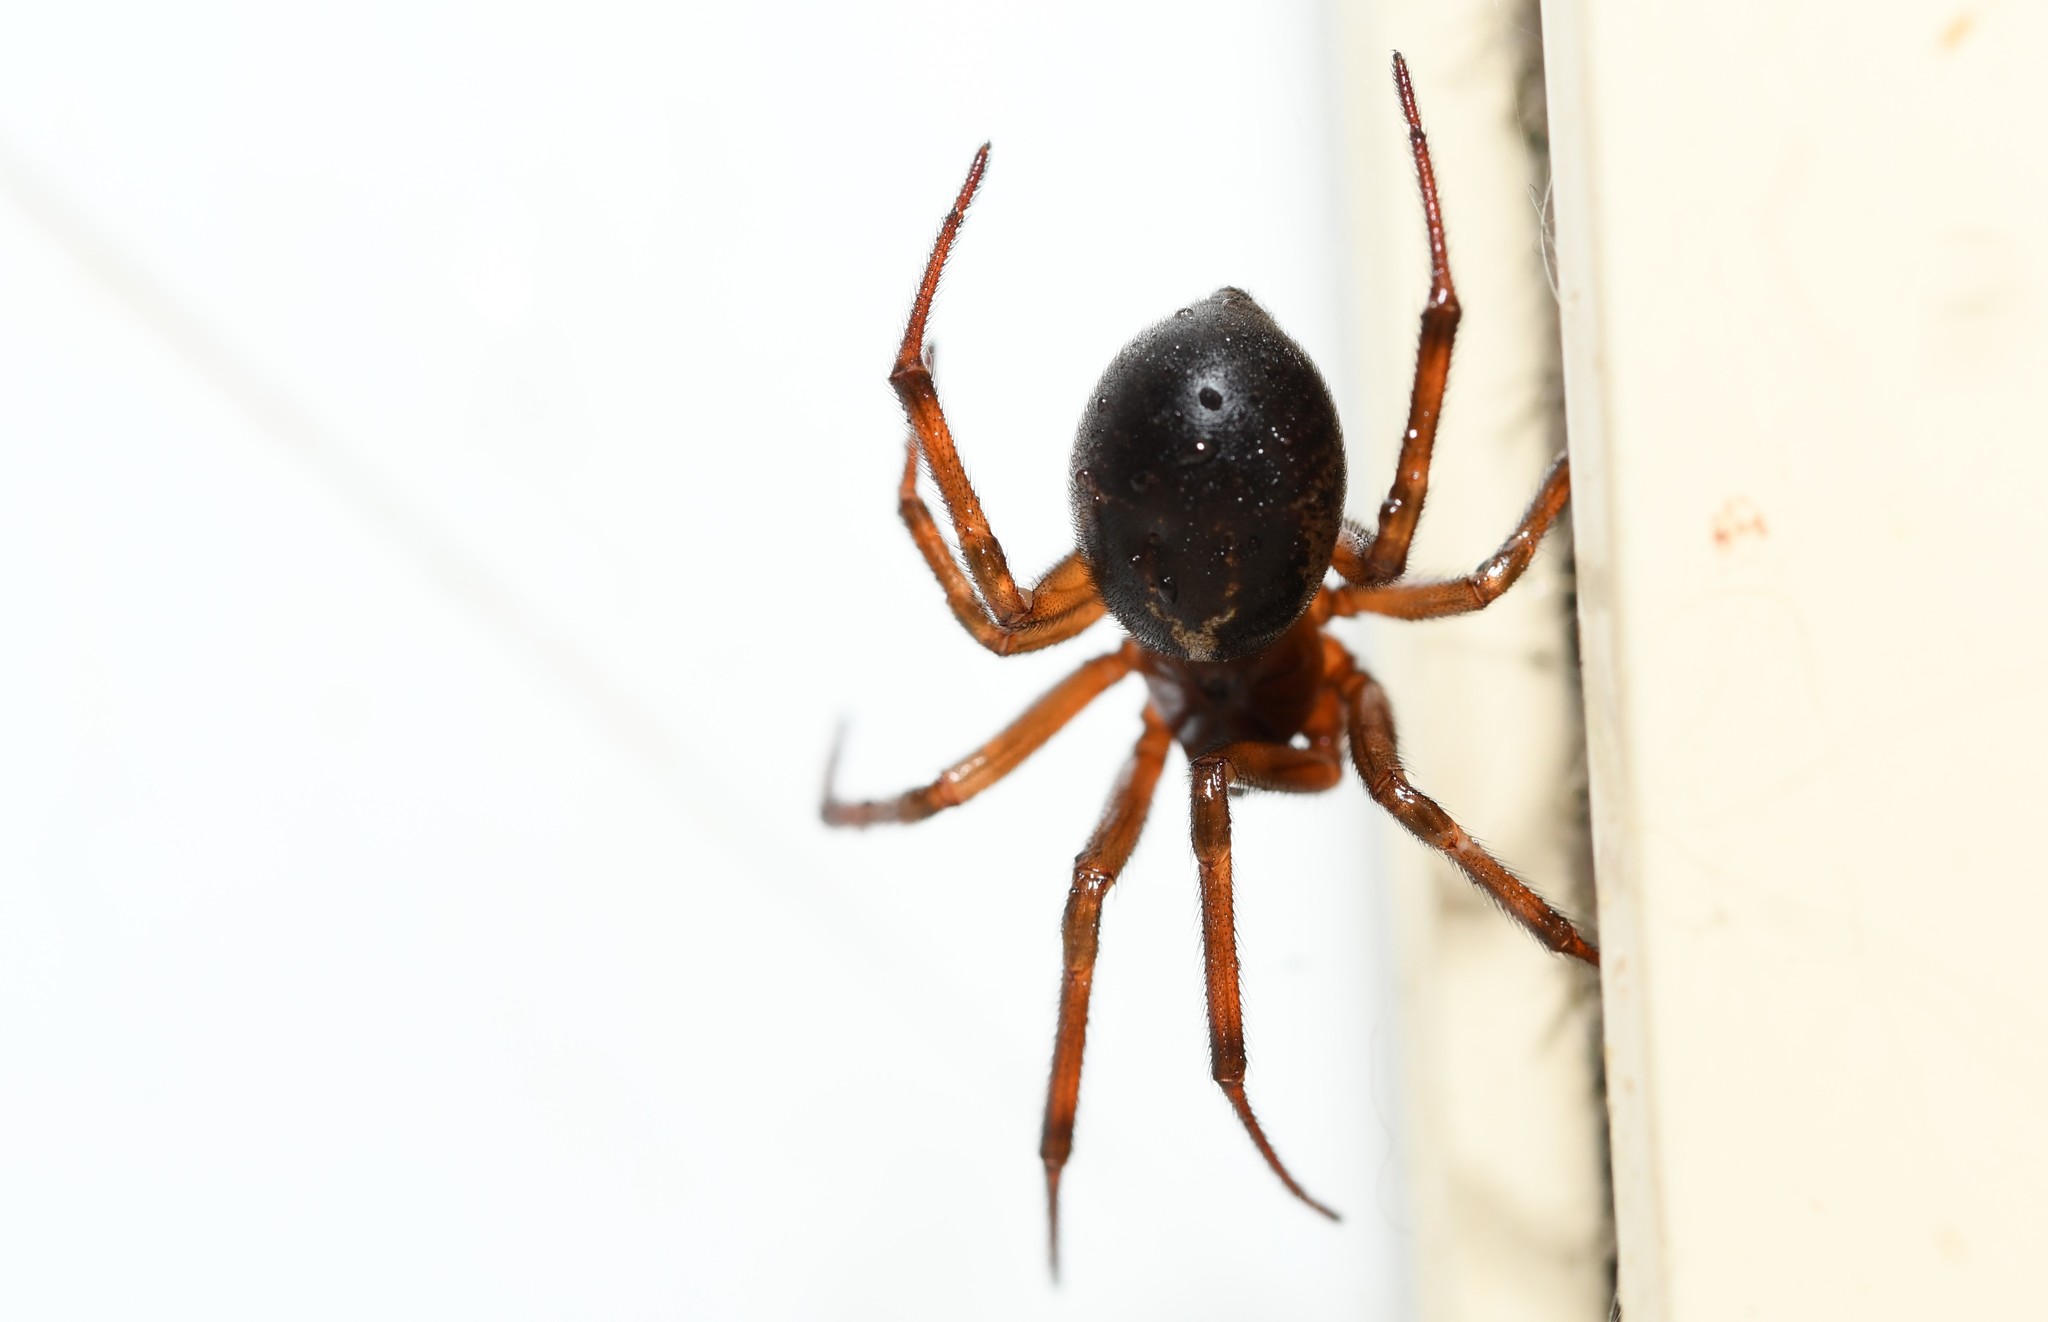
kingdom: Animalia
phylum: Arthropoda
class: Arachnida
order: Araneae
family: Theridiidae
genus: Steatoda
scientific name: Steatoda nobilis
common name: Cobweb weaver
